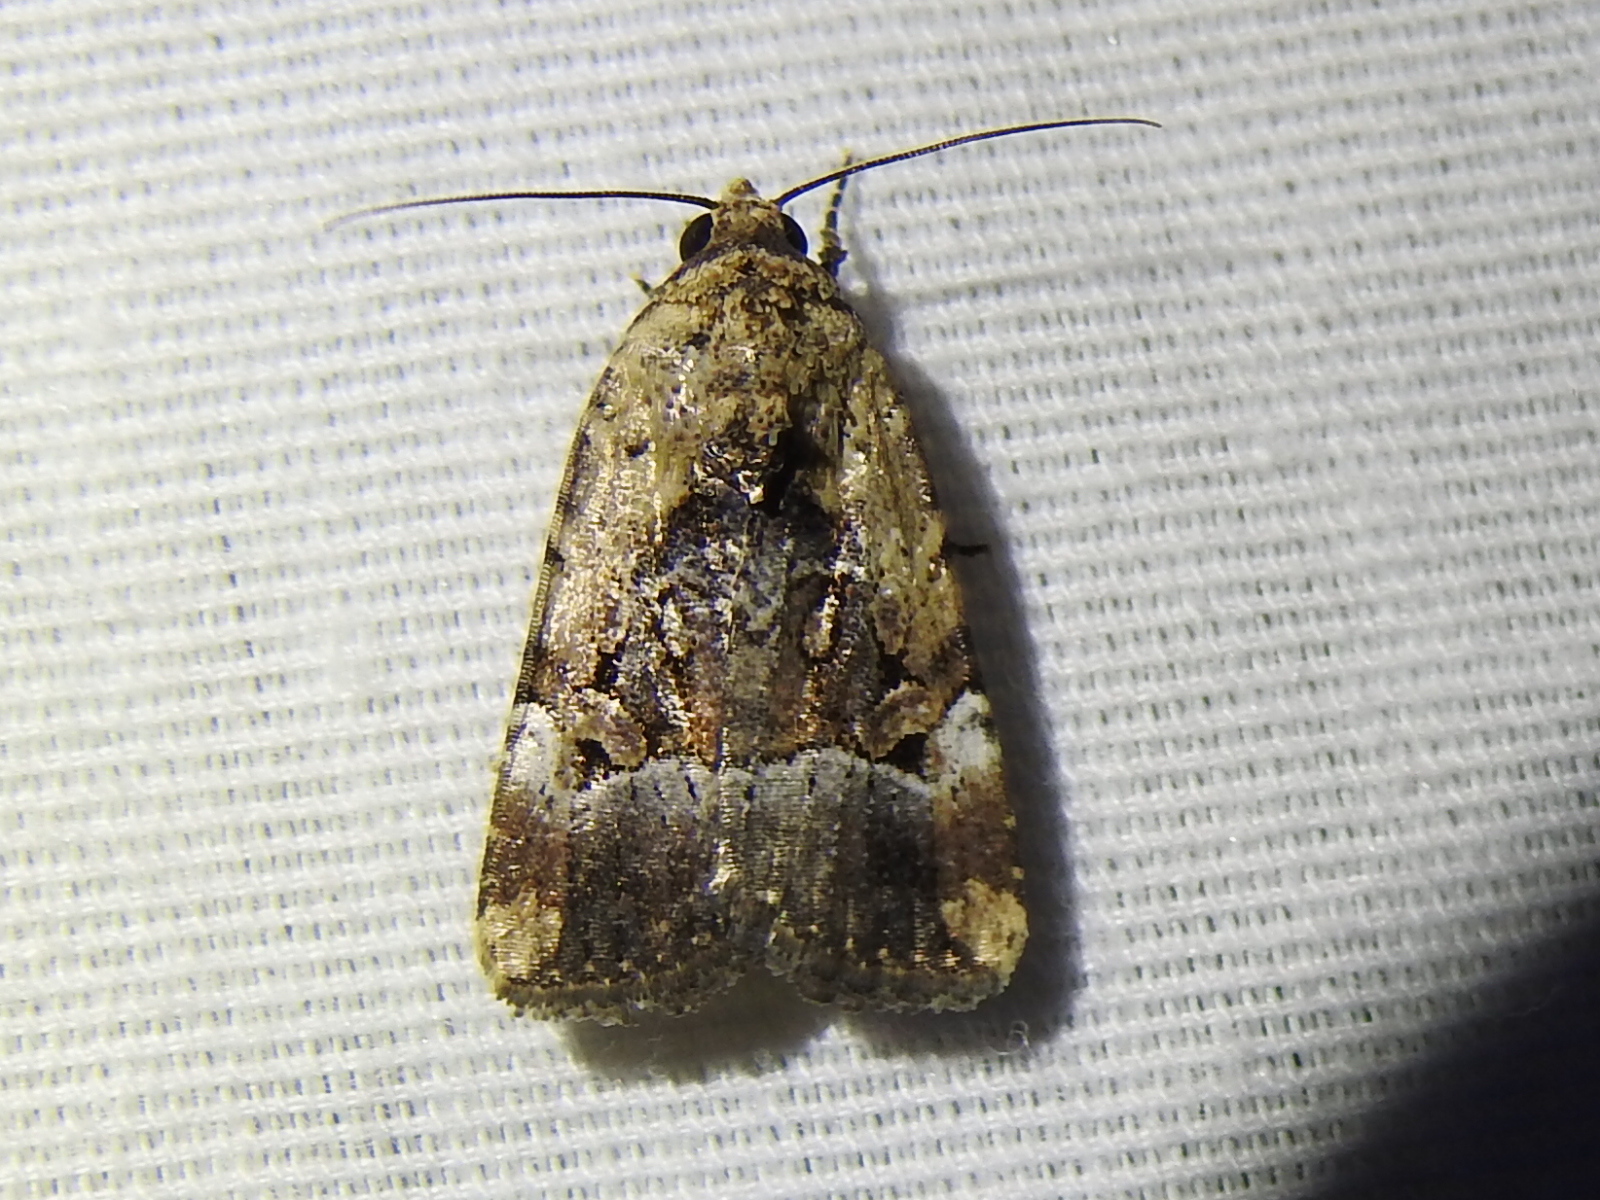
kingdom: Animalia
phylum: Arthropoda
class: Insecta
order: Lepidoptera
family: Noctuidae
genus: Elaphria
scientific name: Elaphria chalcedonia
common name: Chalcedony midget
